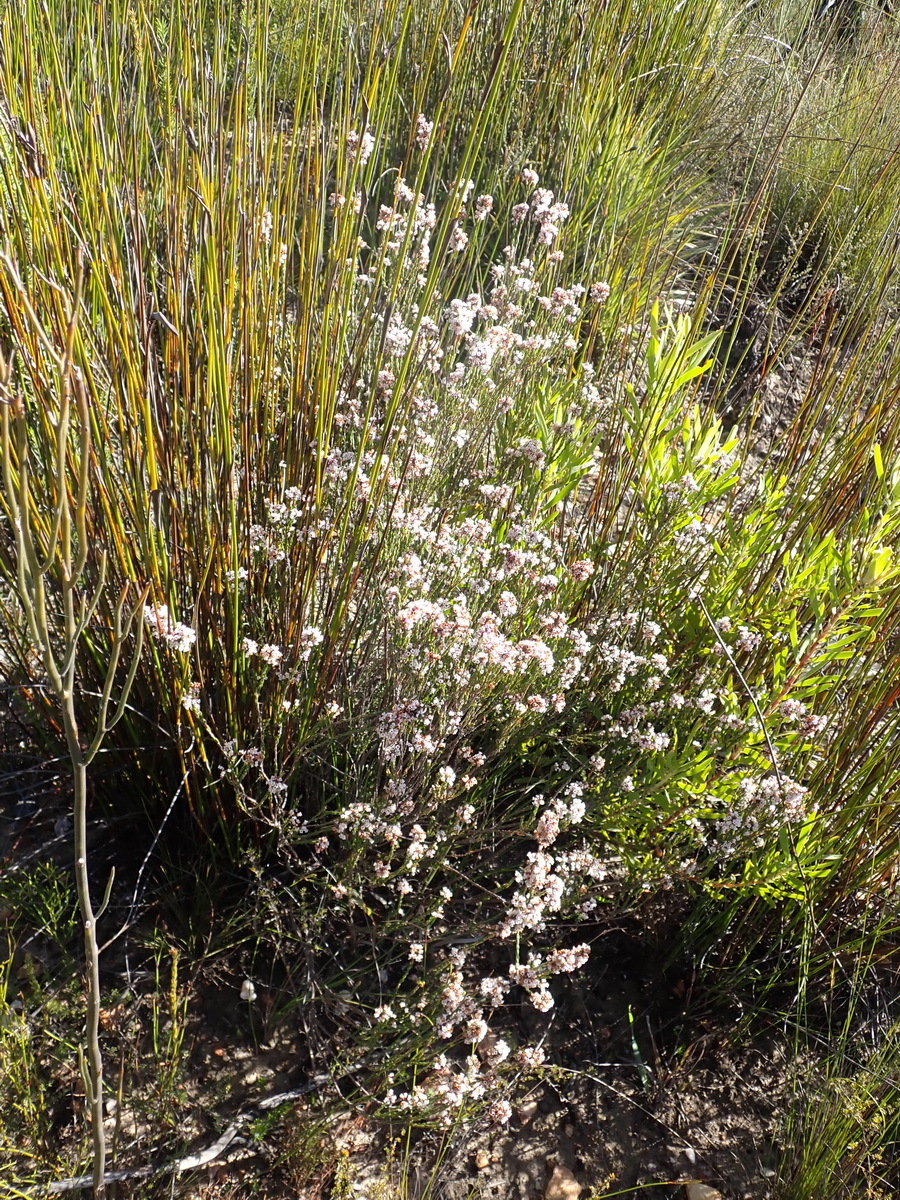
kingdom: Plantae
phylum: Tracheophyta
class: Magnoliopsida
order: Ericales
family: Ericaceae
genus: Erica
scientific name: Erica articularis
